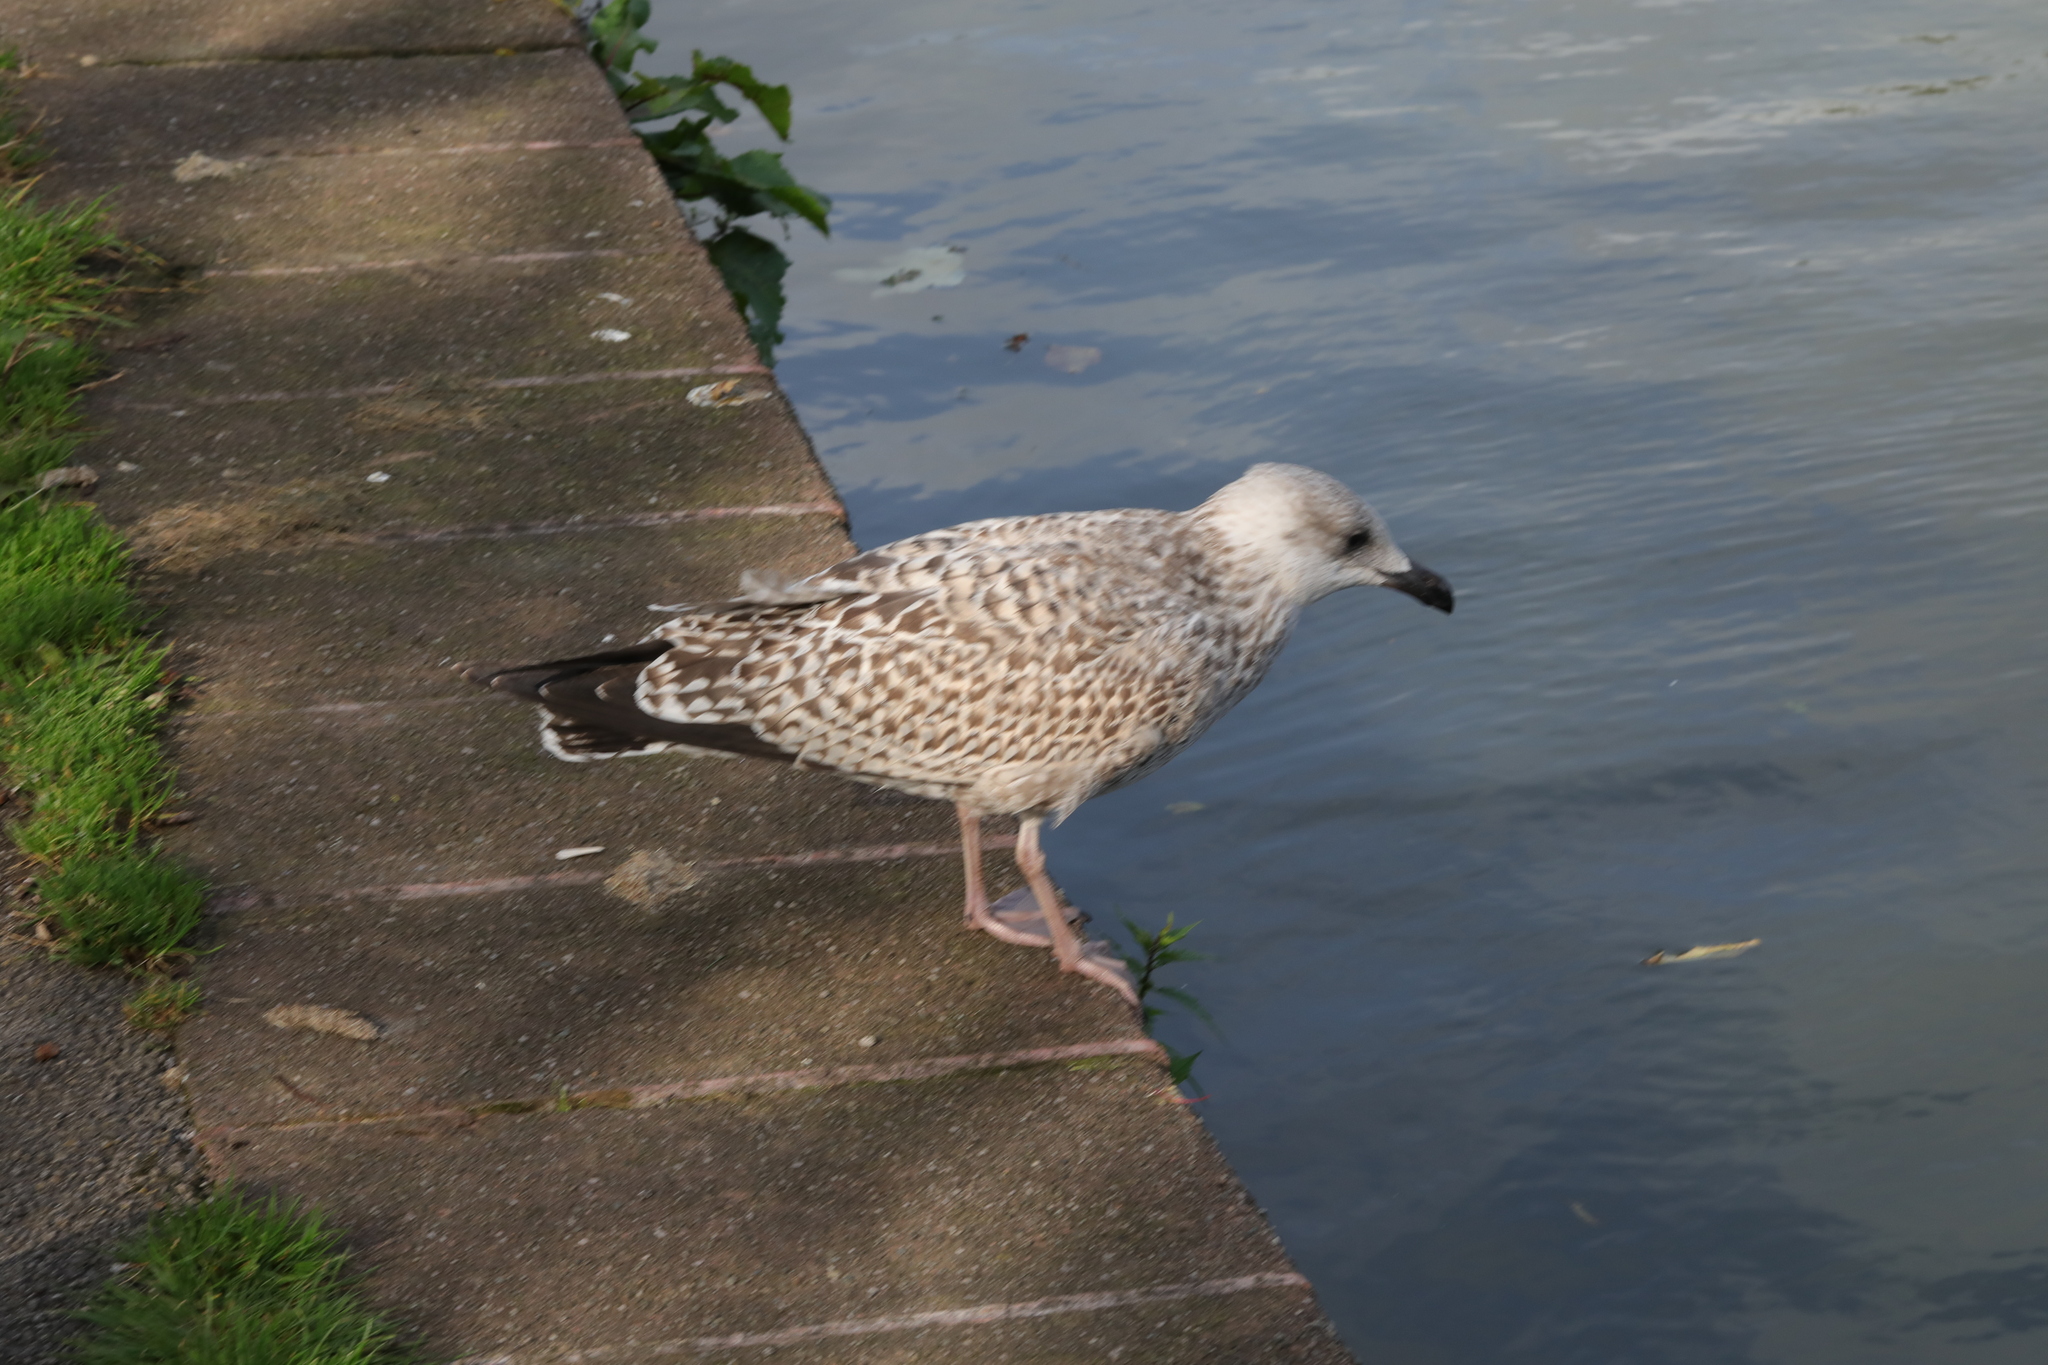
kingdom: Animalia
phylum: Chordata
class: Aves
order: Charadriiformes
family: Laridae
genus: Larus
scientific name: Larus argentatus
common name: Herring gull
